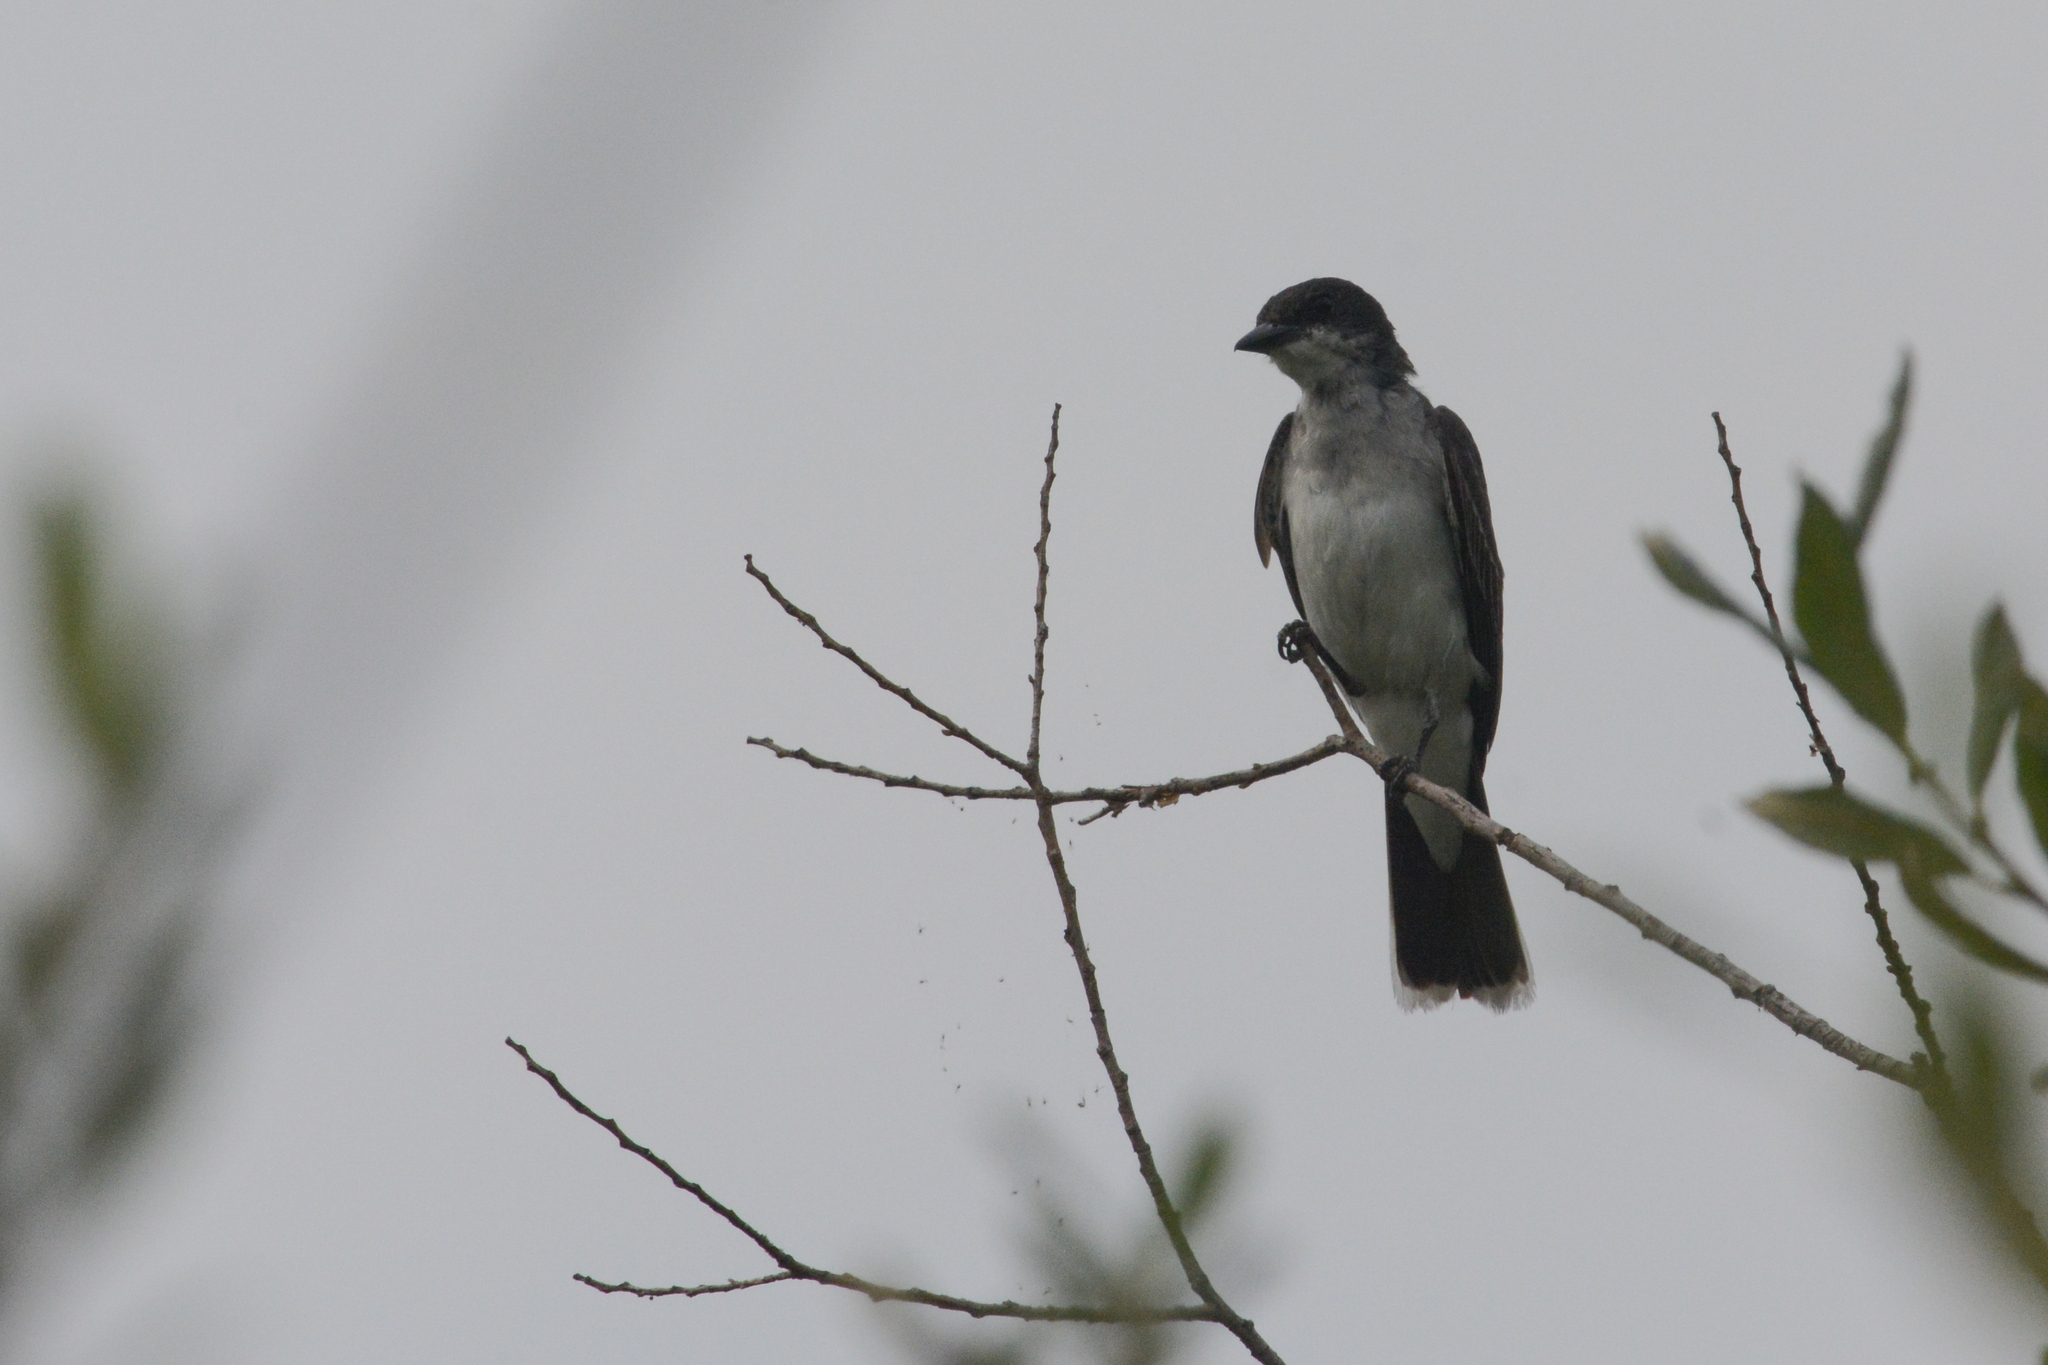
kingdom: Animalia
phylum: Chordata
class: Aves
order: Passeriformes
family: Tyrannidae
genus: Tyrannus
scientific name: Tyrannus tyrannus
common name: Eastern kingbird
